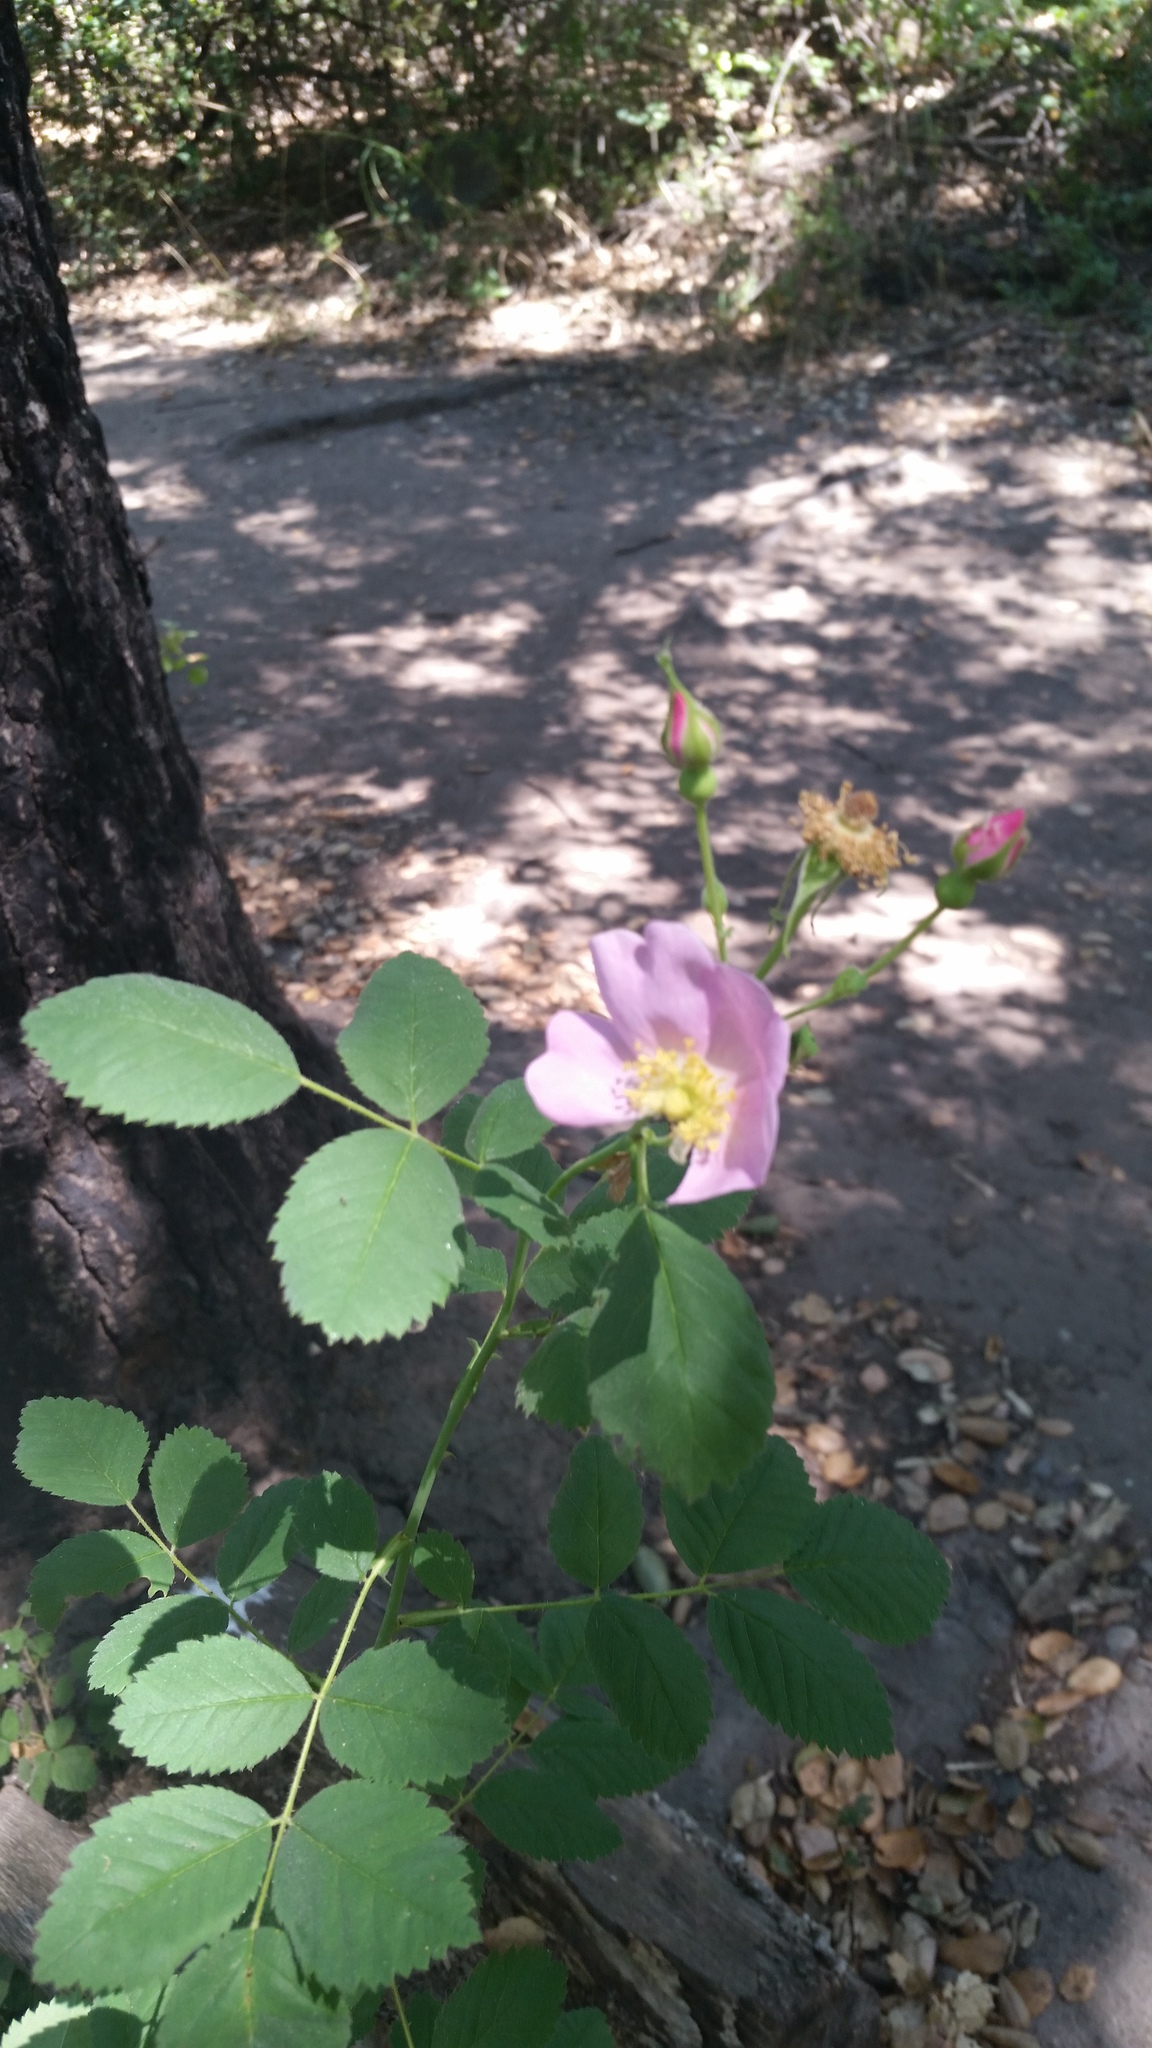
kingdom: Plantae
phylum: Tracheophyta
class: Magnoliopsida
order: Rosales
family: Rosaceae
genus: Rosa
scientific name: Rosa californica
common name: California rose
